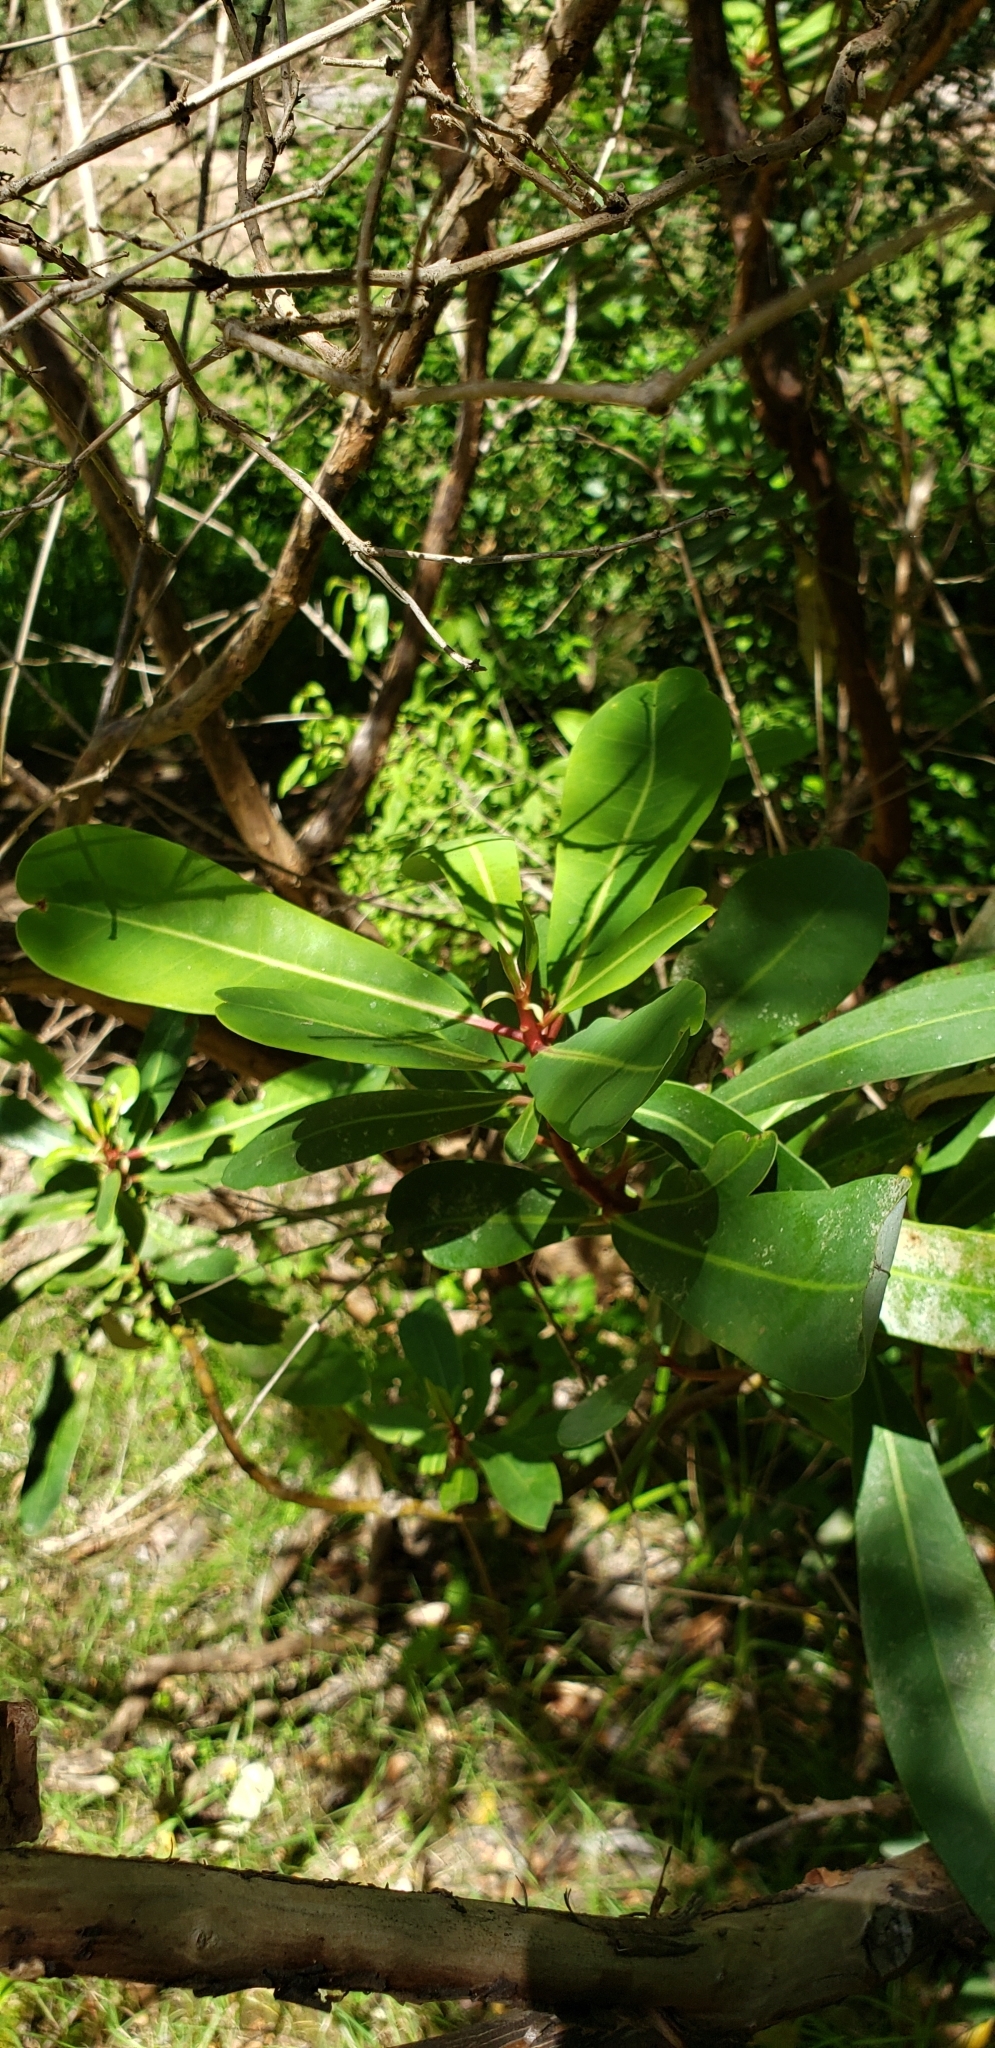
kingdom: Plantae
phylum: Tracheophyta
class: Magnoliopsida
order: Canellales
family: Winteraceae
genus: Drimys
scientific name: Drimys winteri
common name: Winter's-bark
